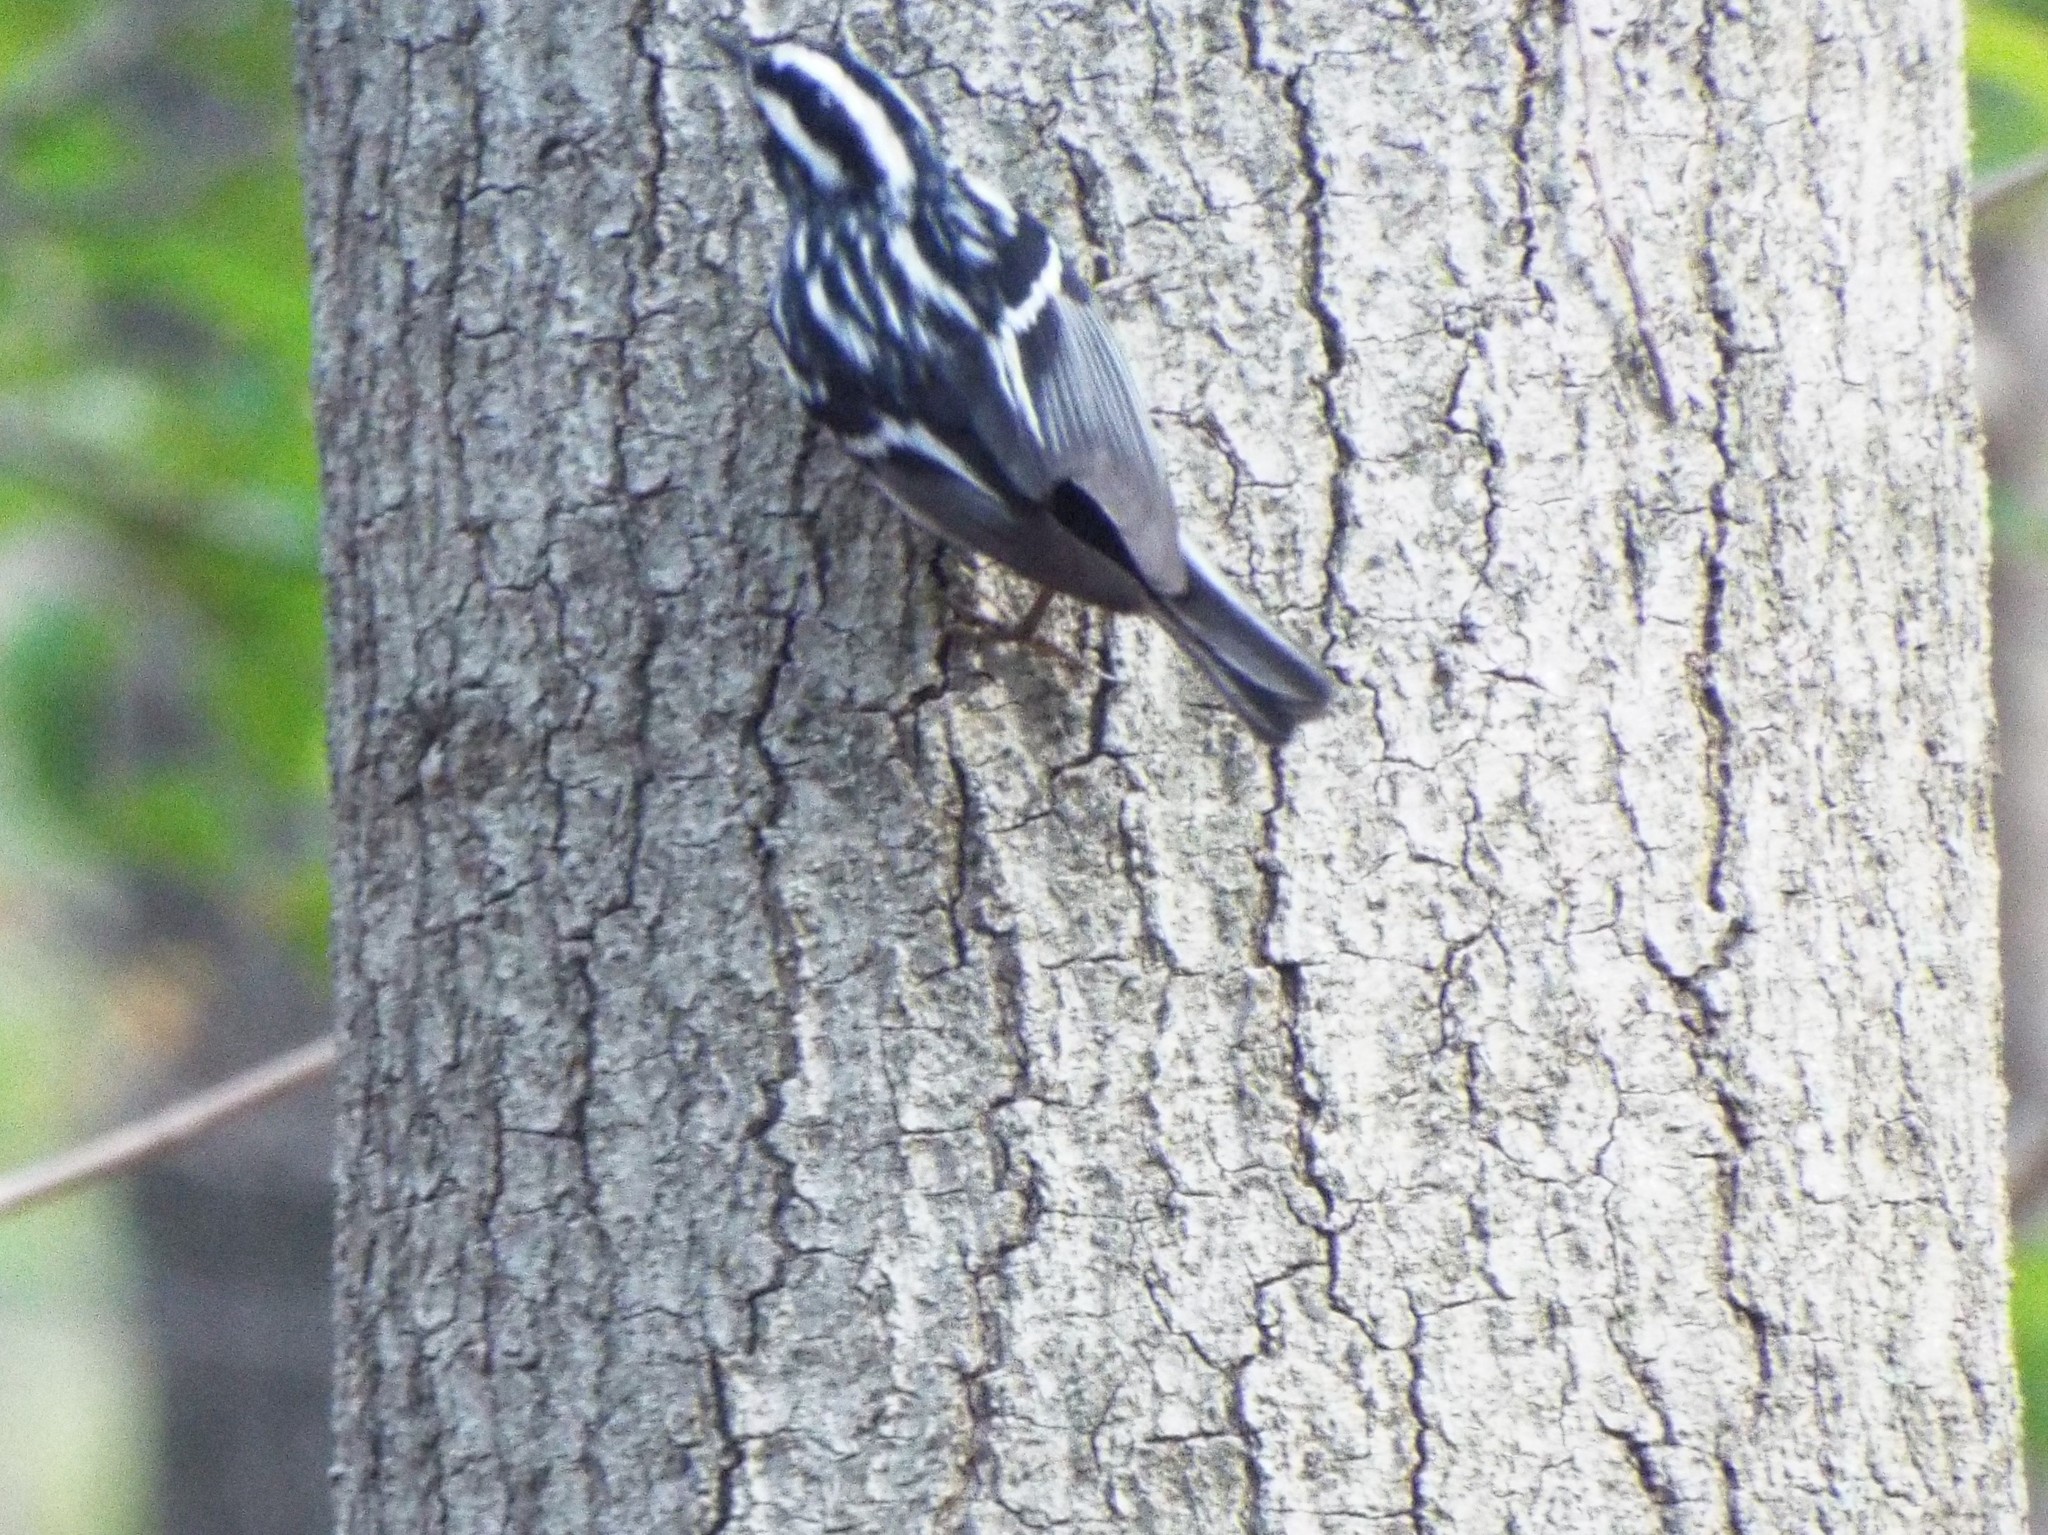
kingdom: Animalia
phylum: Chordata
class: Aves
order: Passeriformes
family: Parulidae
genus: Mniotilta
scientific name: Mniotilta varia
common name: Black-and-white warbler
